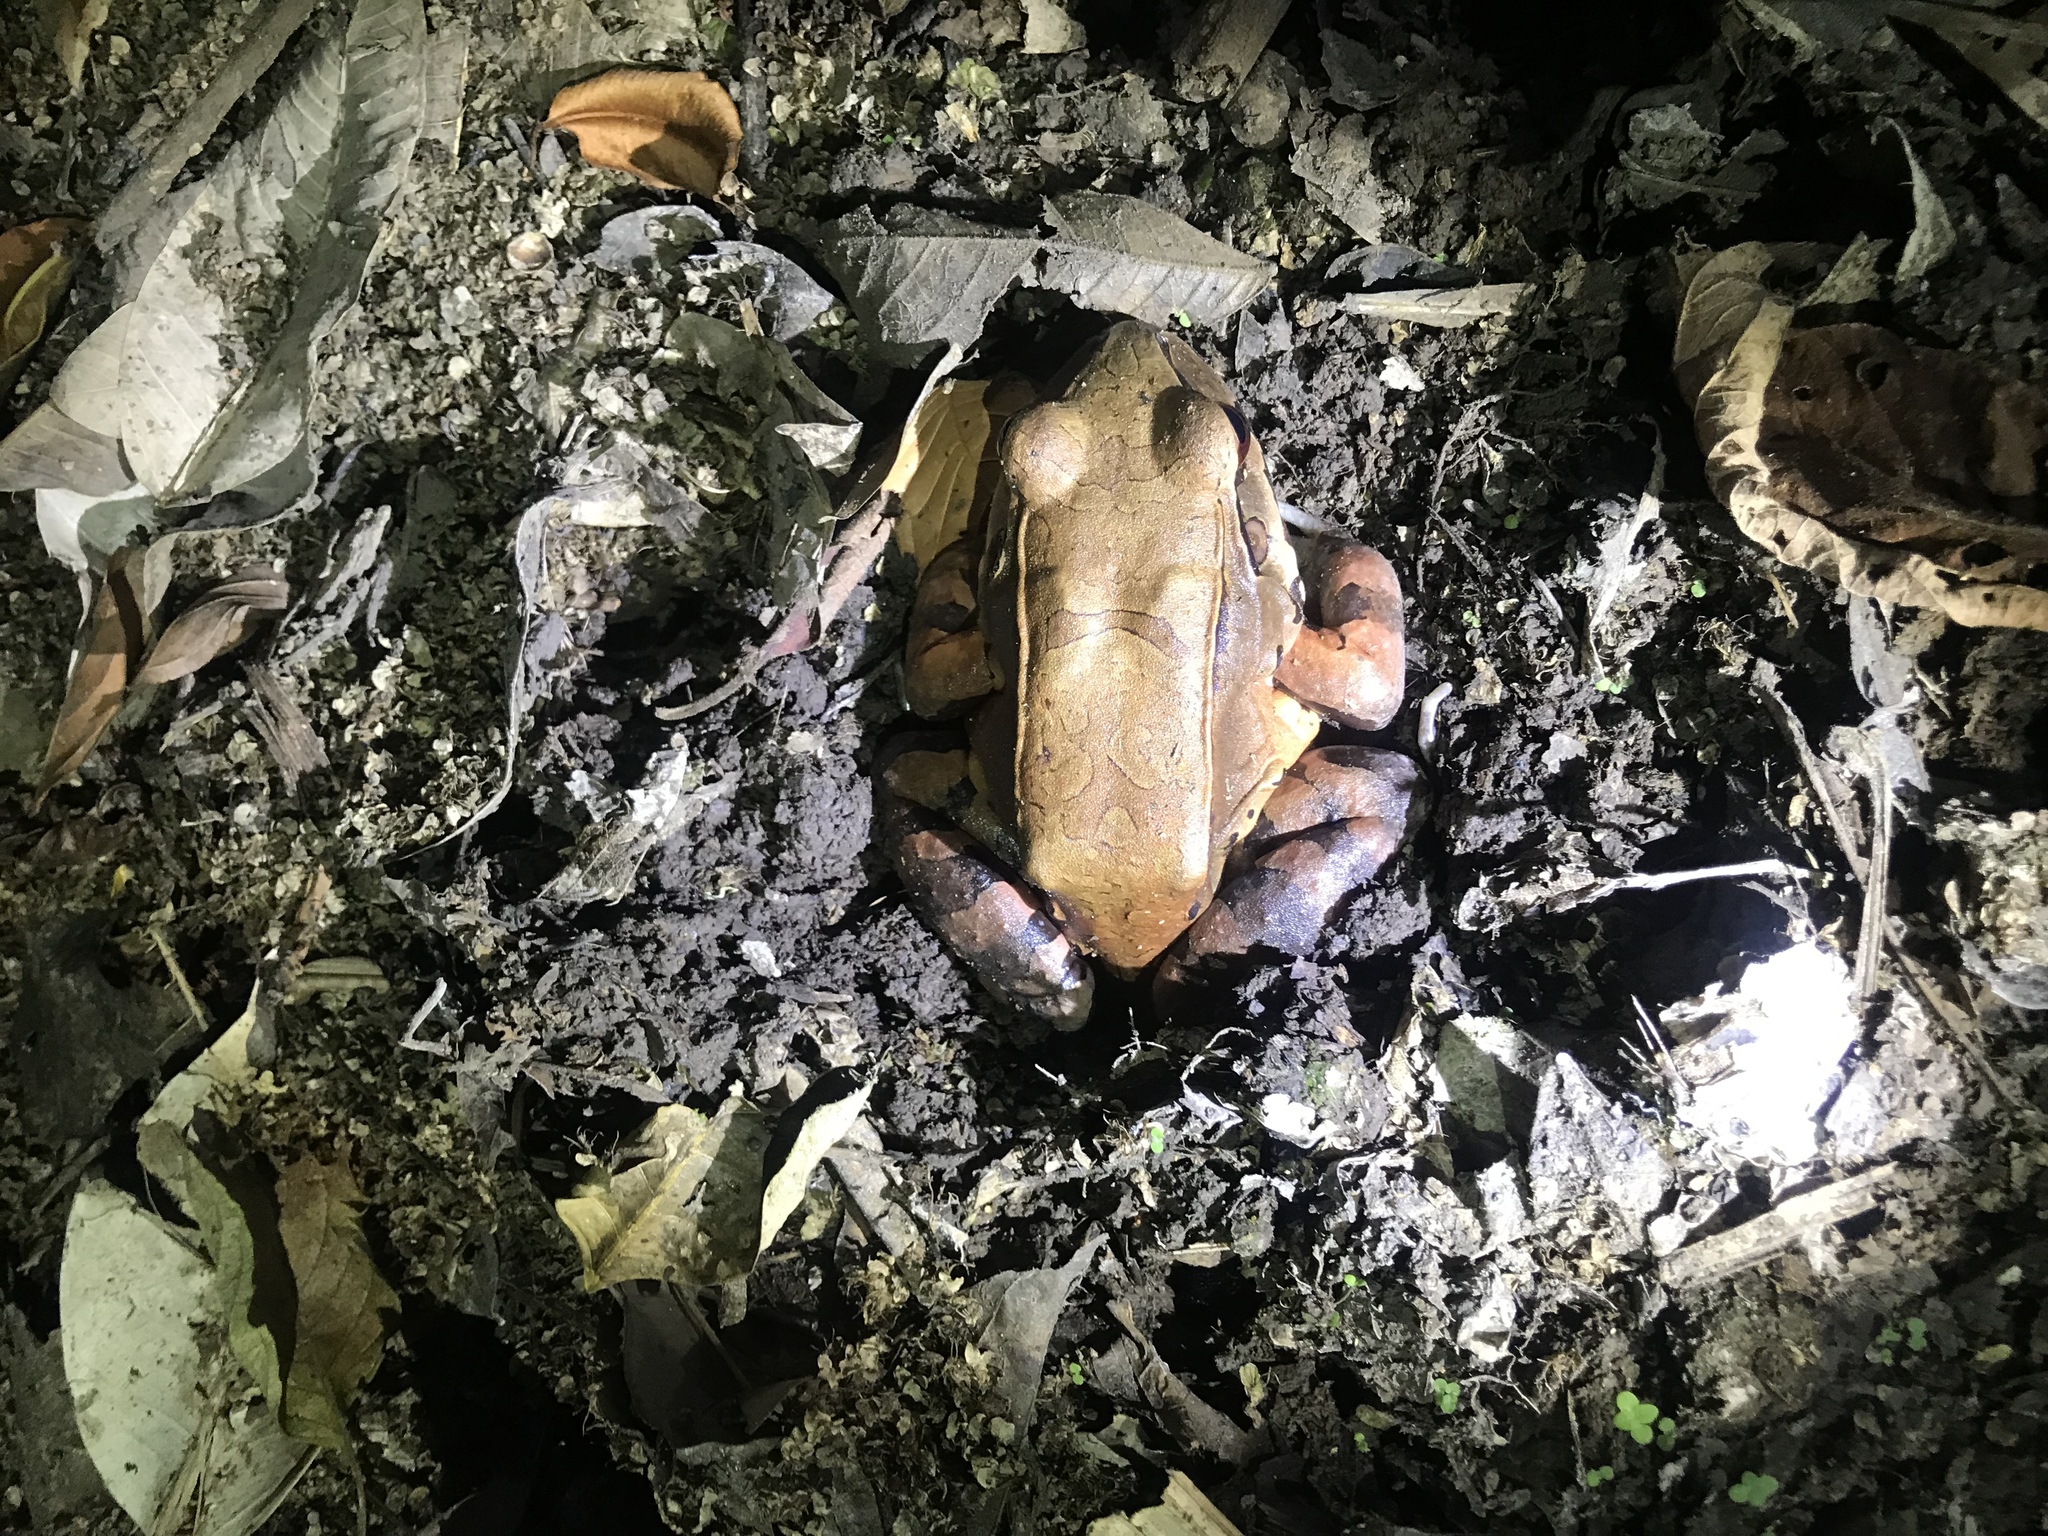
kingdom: Animalia
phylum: Chordata
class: Amphibia
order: Anura
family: Leptodactylidae
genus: Leptodactylus
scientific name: Leptodactylus savagei
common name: Savage's thin-toed frog
